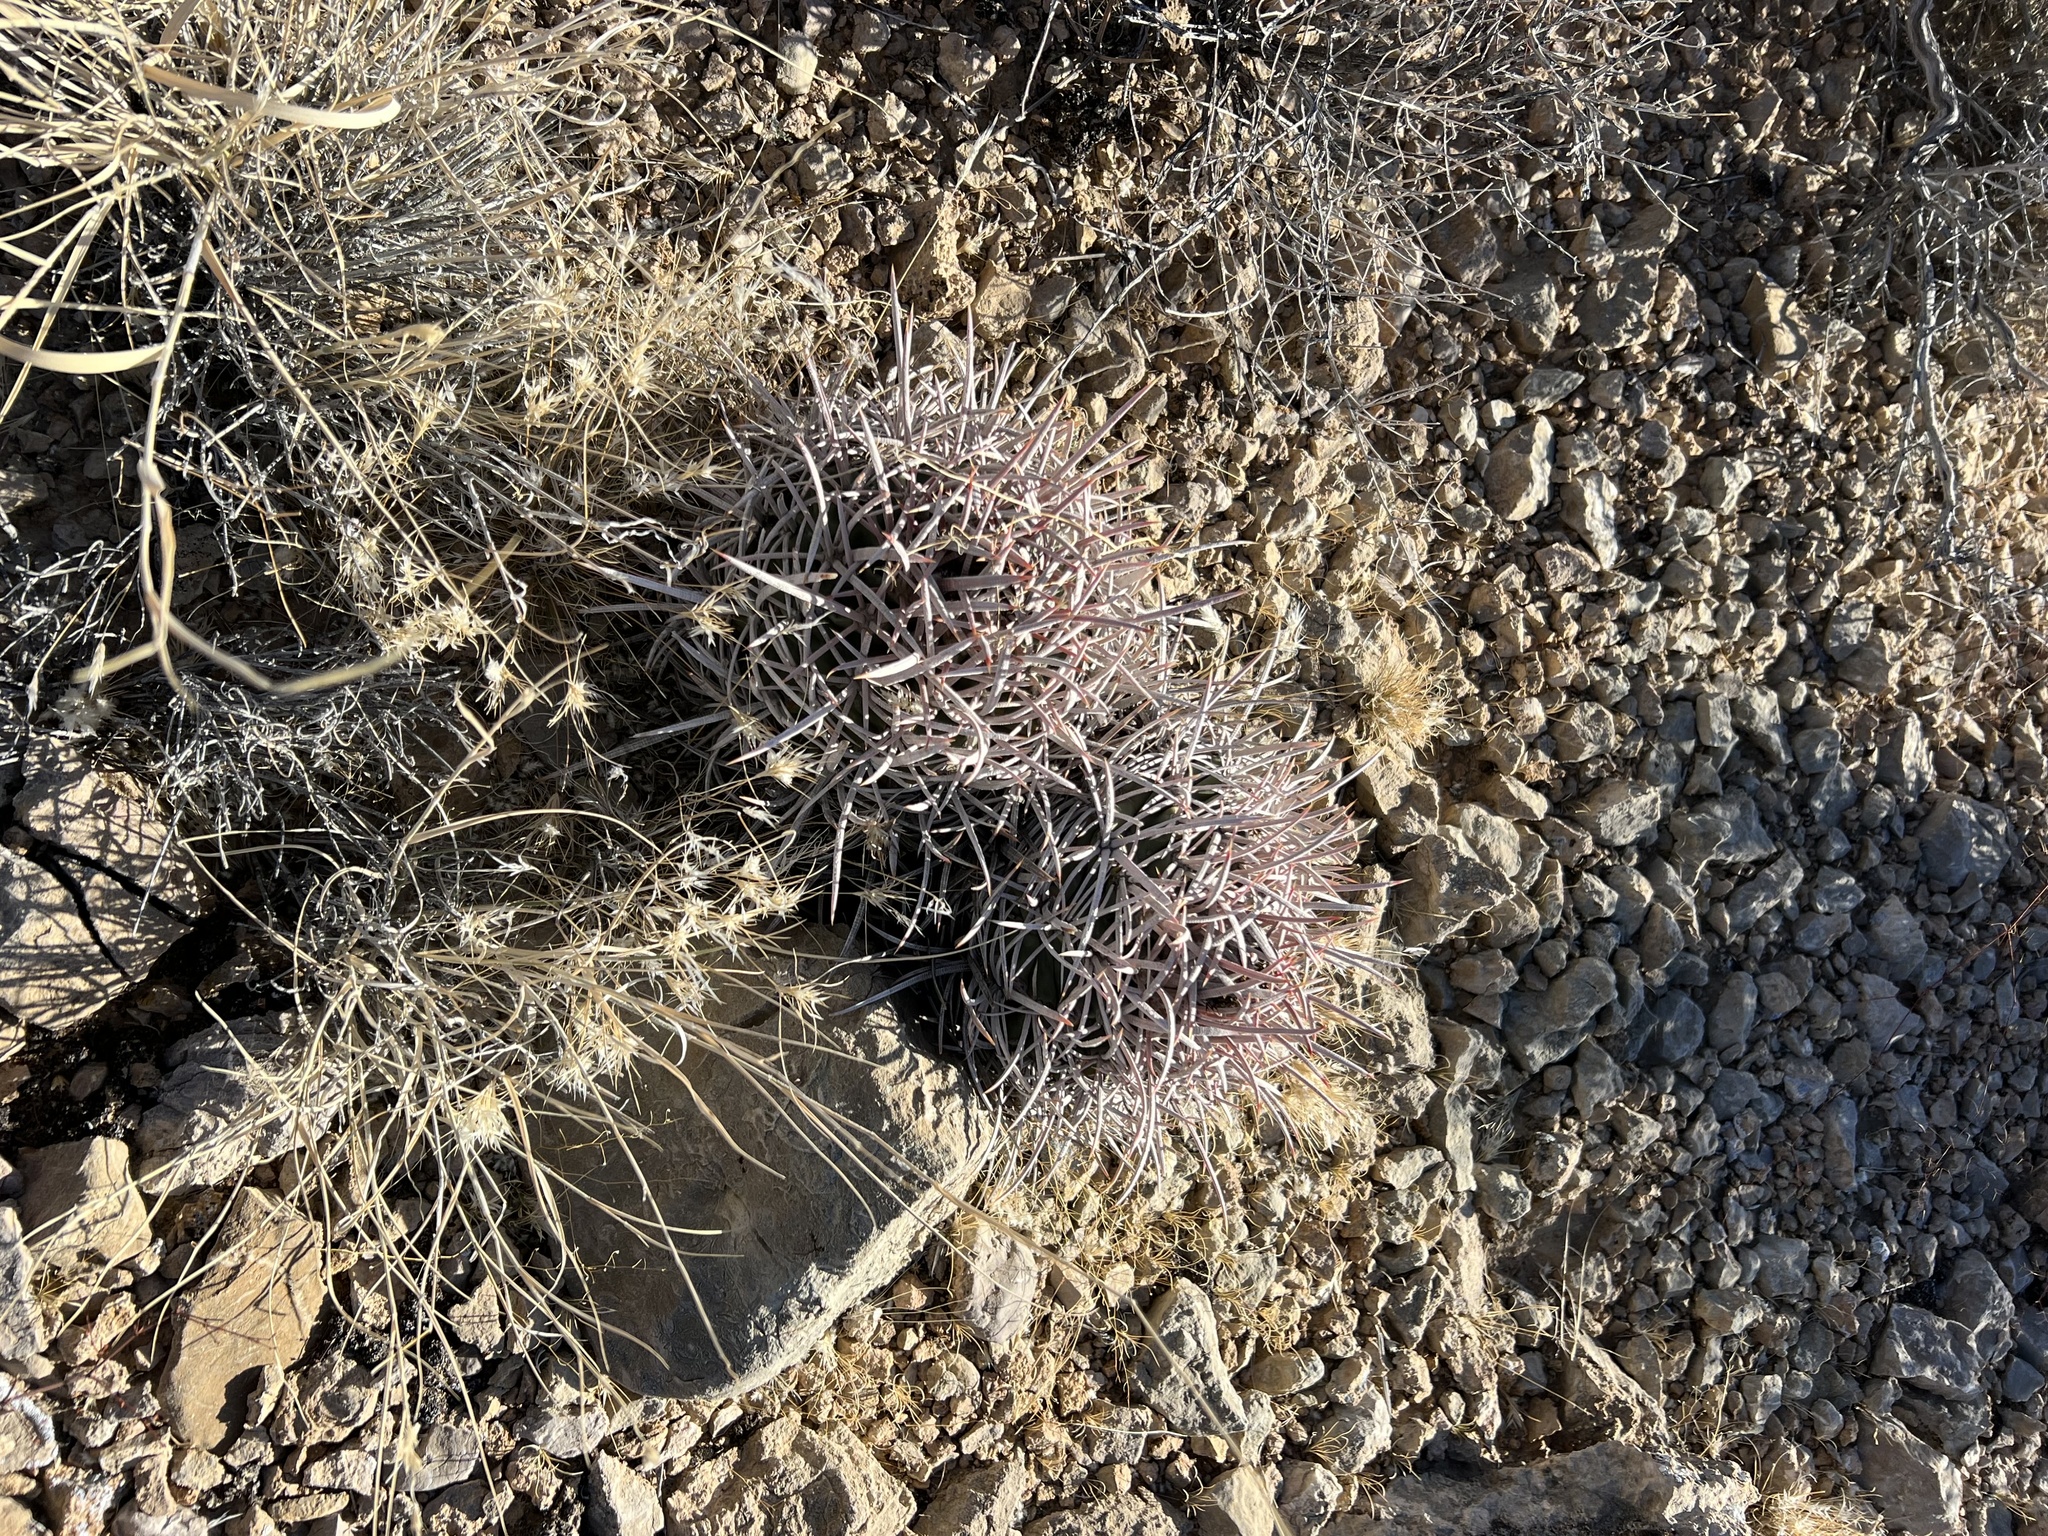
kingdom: Plantae
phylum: Tracheophyta
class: Magnoliopsida
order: Caryophyllales
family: Cactaceae
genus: Echinocactus
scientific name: Echinocactus polycephalus
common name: Cottontop cactus
